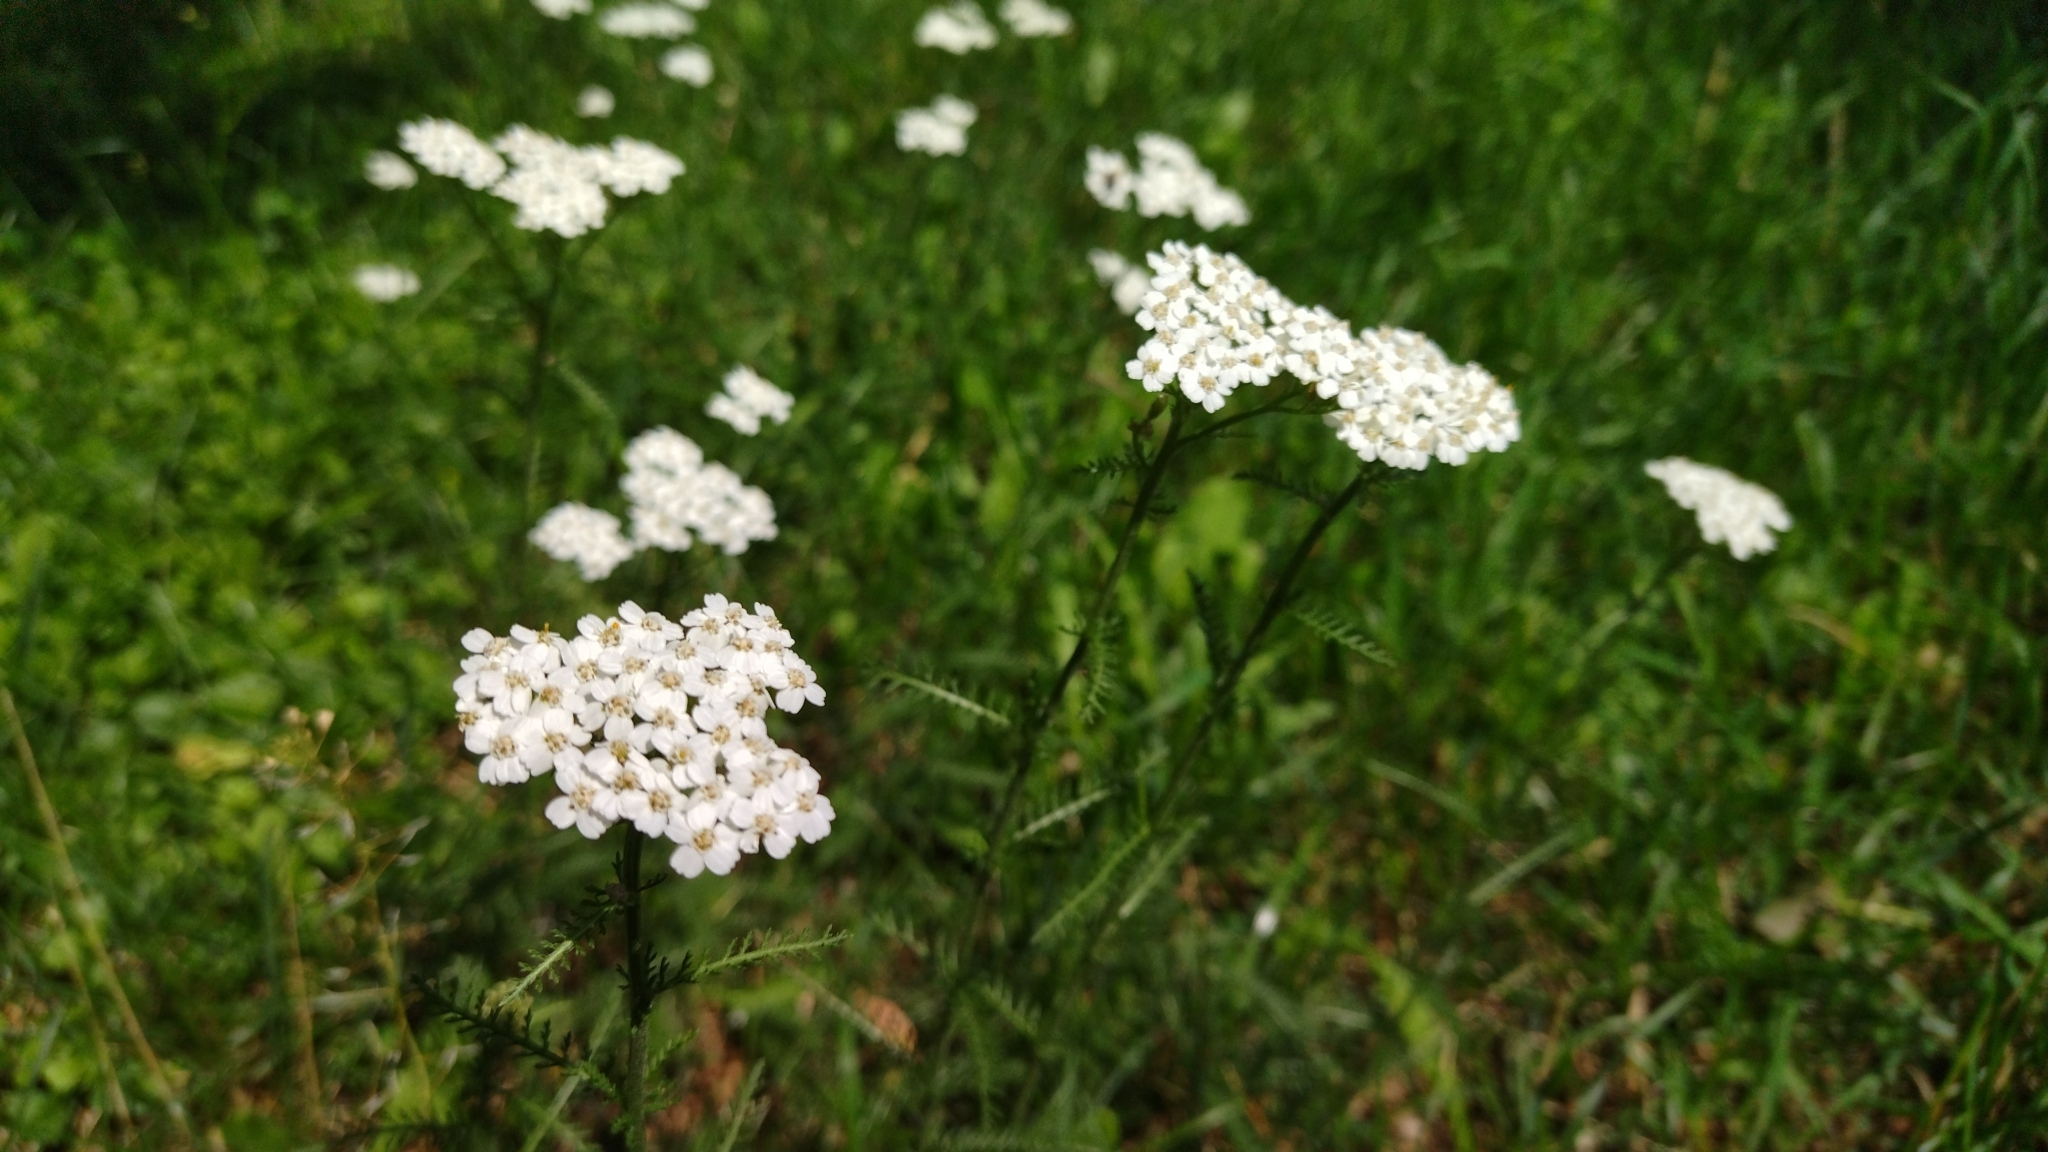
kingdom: Plantae
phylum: Tracheophyta
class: Magnoliopsida
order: Asterales
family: Asteraceae
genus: Achillea
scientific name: Achillea millefolium
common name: Yarrow
